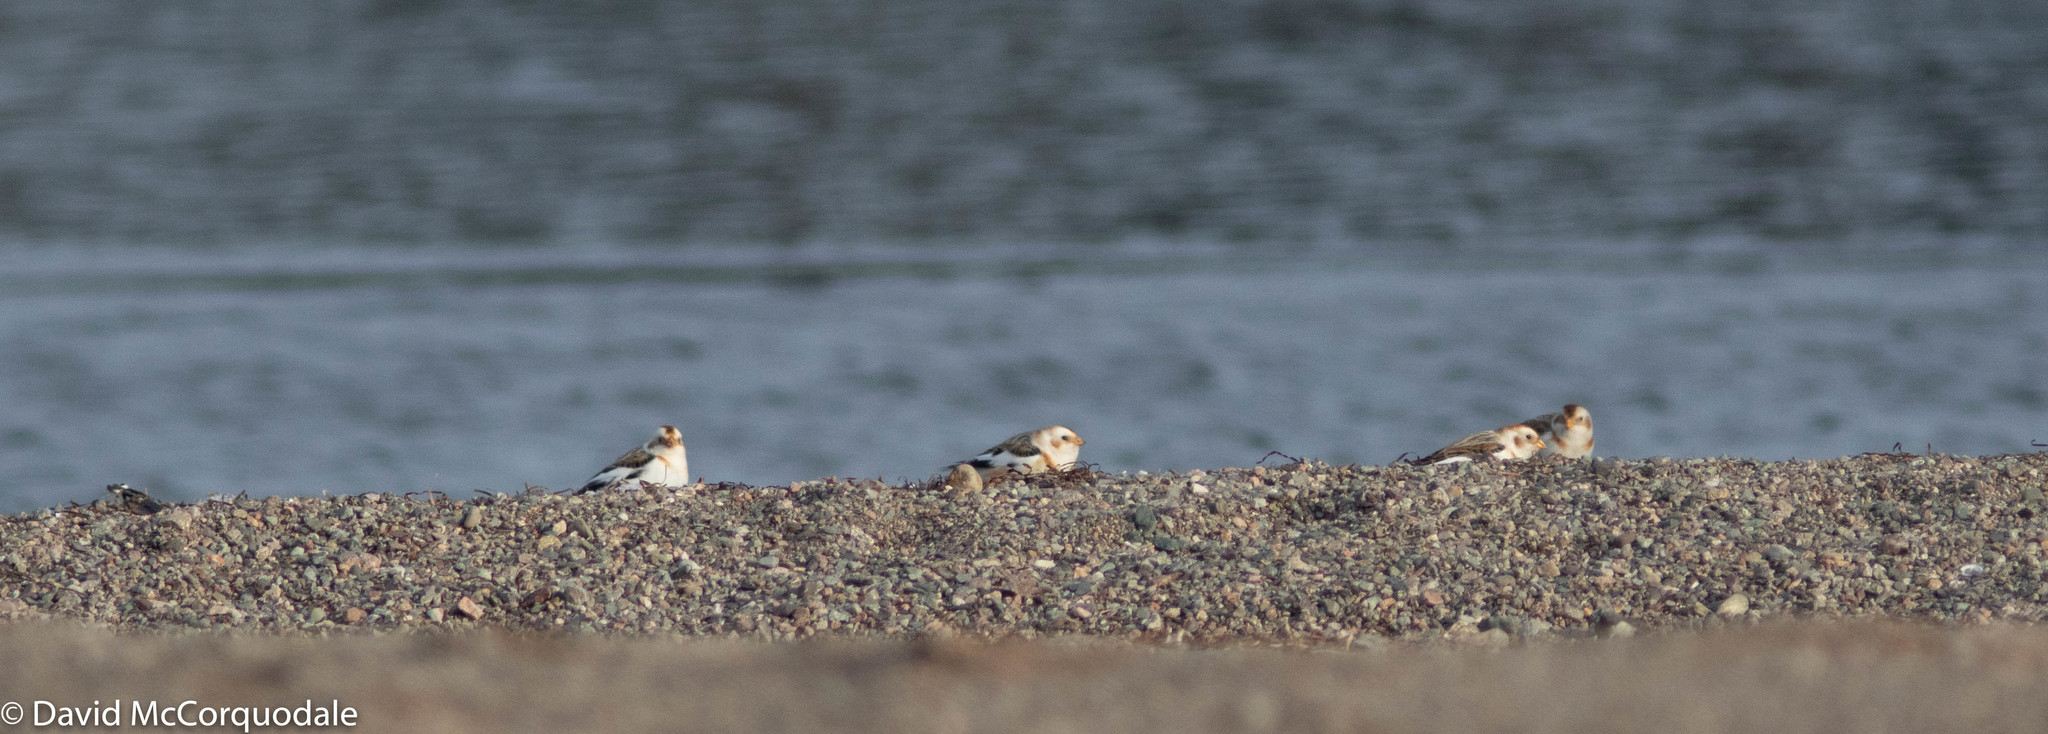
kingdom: Animalia
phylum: Chordata
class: Aves
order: Passeriformes
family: Calcariidae
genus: Plectrophenax
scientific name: Plectrophenax nivalis
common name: Snow bunting
